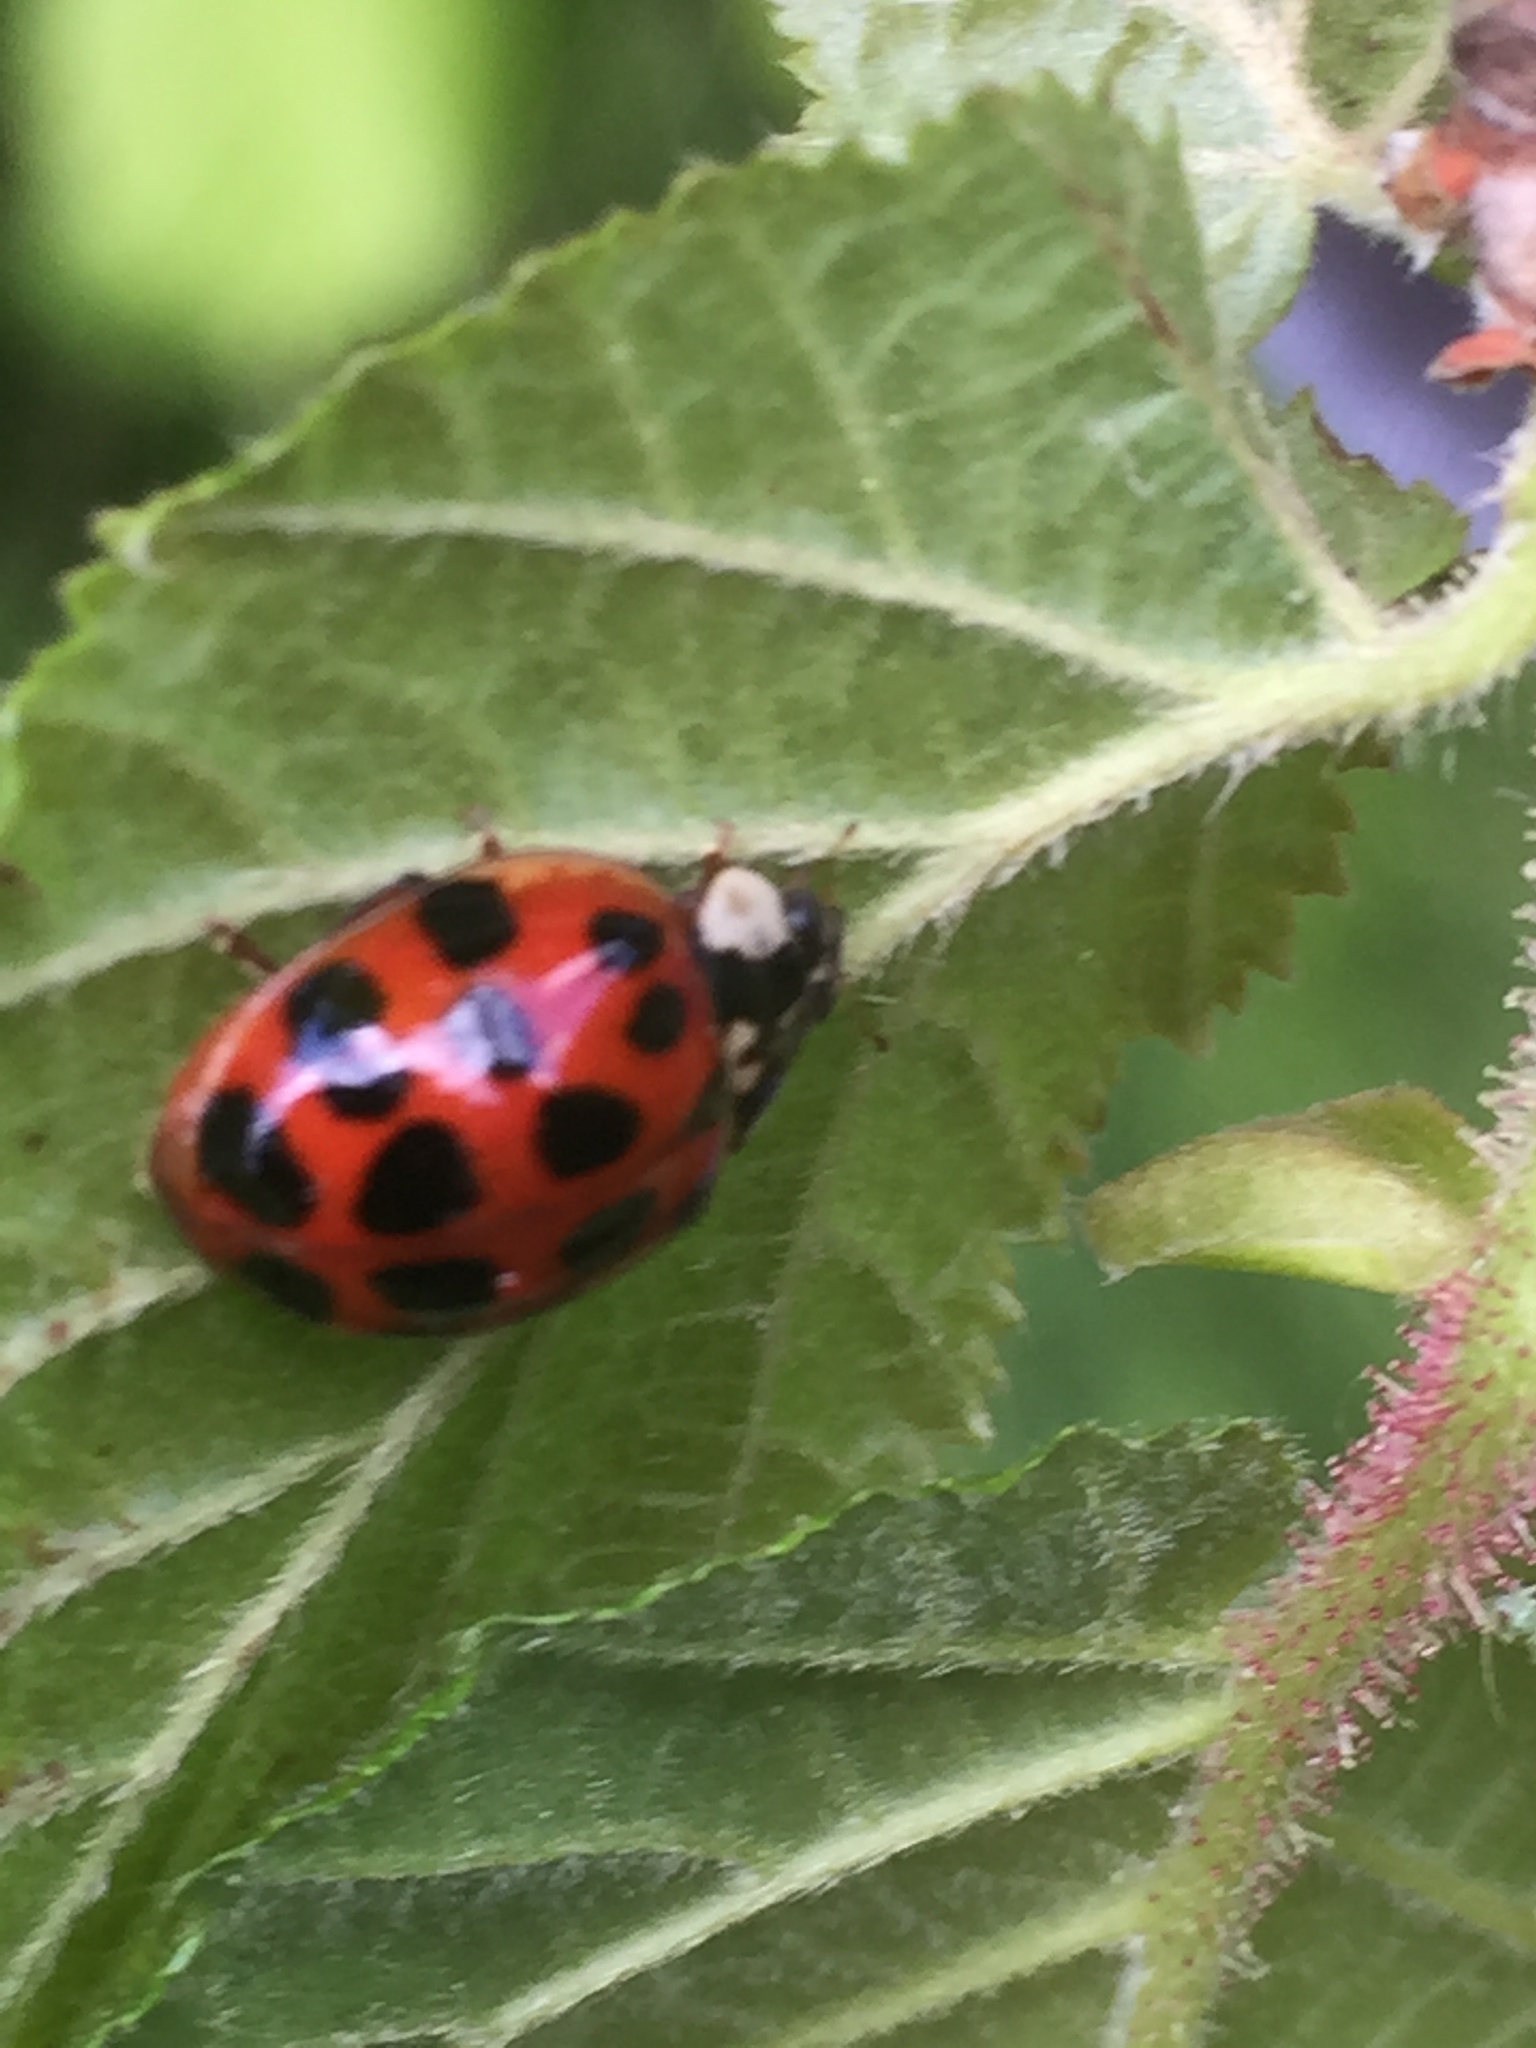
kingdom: Animalia
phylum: Arthropoda
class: Insecta
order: Coleoptera
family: Coccinellidae
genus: Harmonia
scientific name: Harmonia axyridis
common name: Harlequin ladybird
